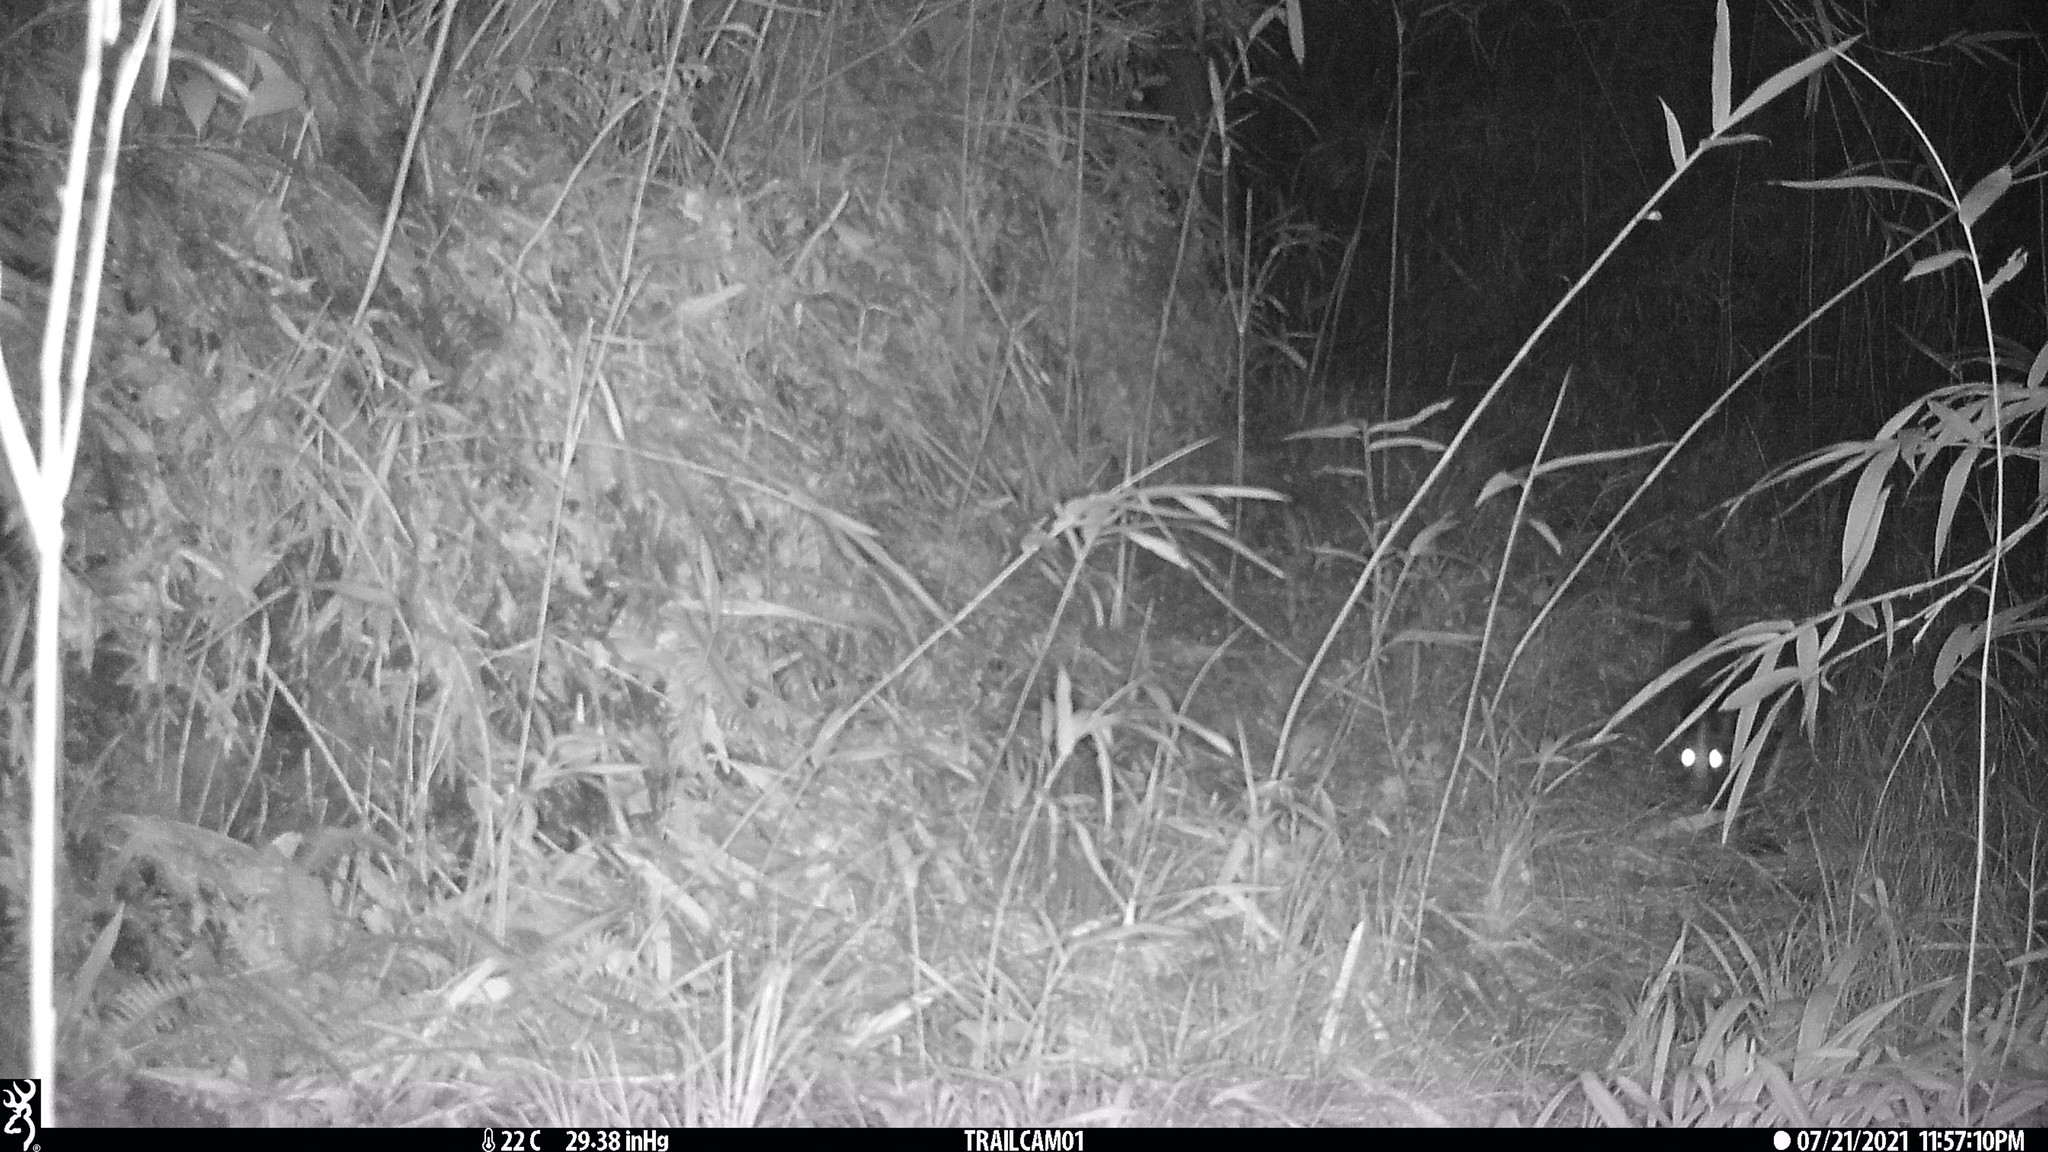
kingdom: Animalia
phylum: Chordata
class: Mammalia
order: Carnivora
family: Viverridae
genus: Paguma
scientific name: Paguma larvata
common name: Masked palm civet
